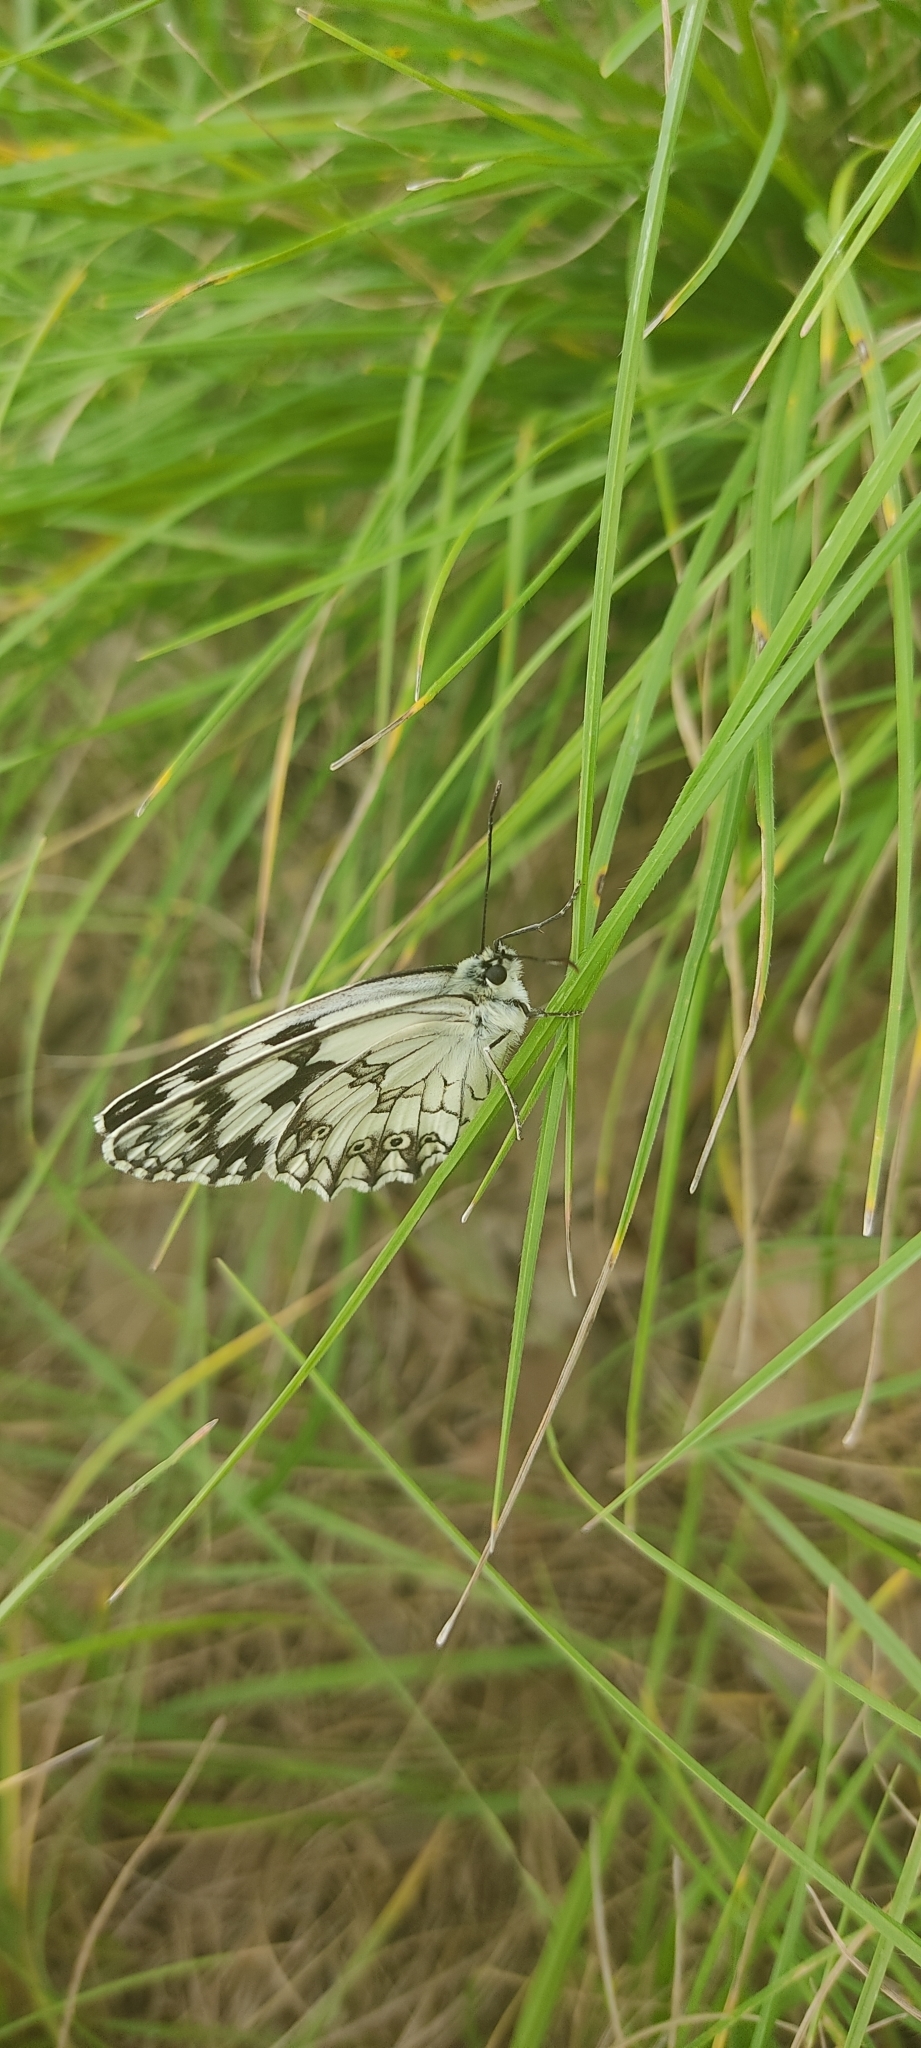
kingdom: Animalia
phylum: Arthropoda
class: Insecta
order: Lepidoptera
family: Nymphalidae
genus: Melanargia
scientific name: Melanargia lachesis
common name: Iberian marbled white
